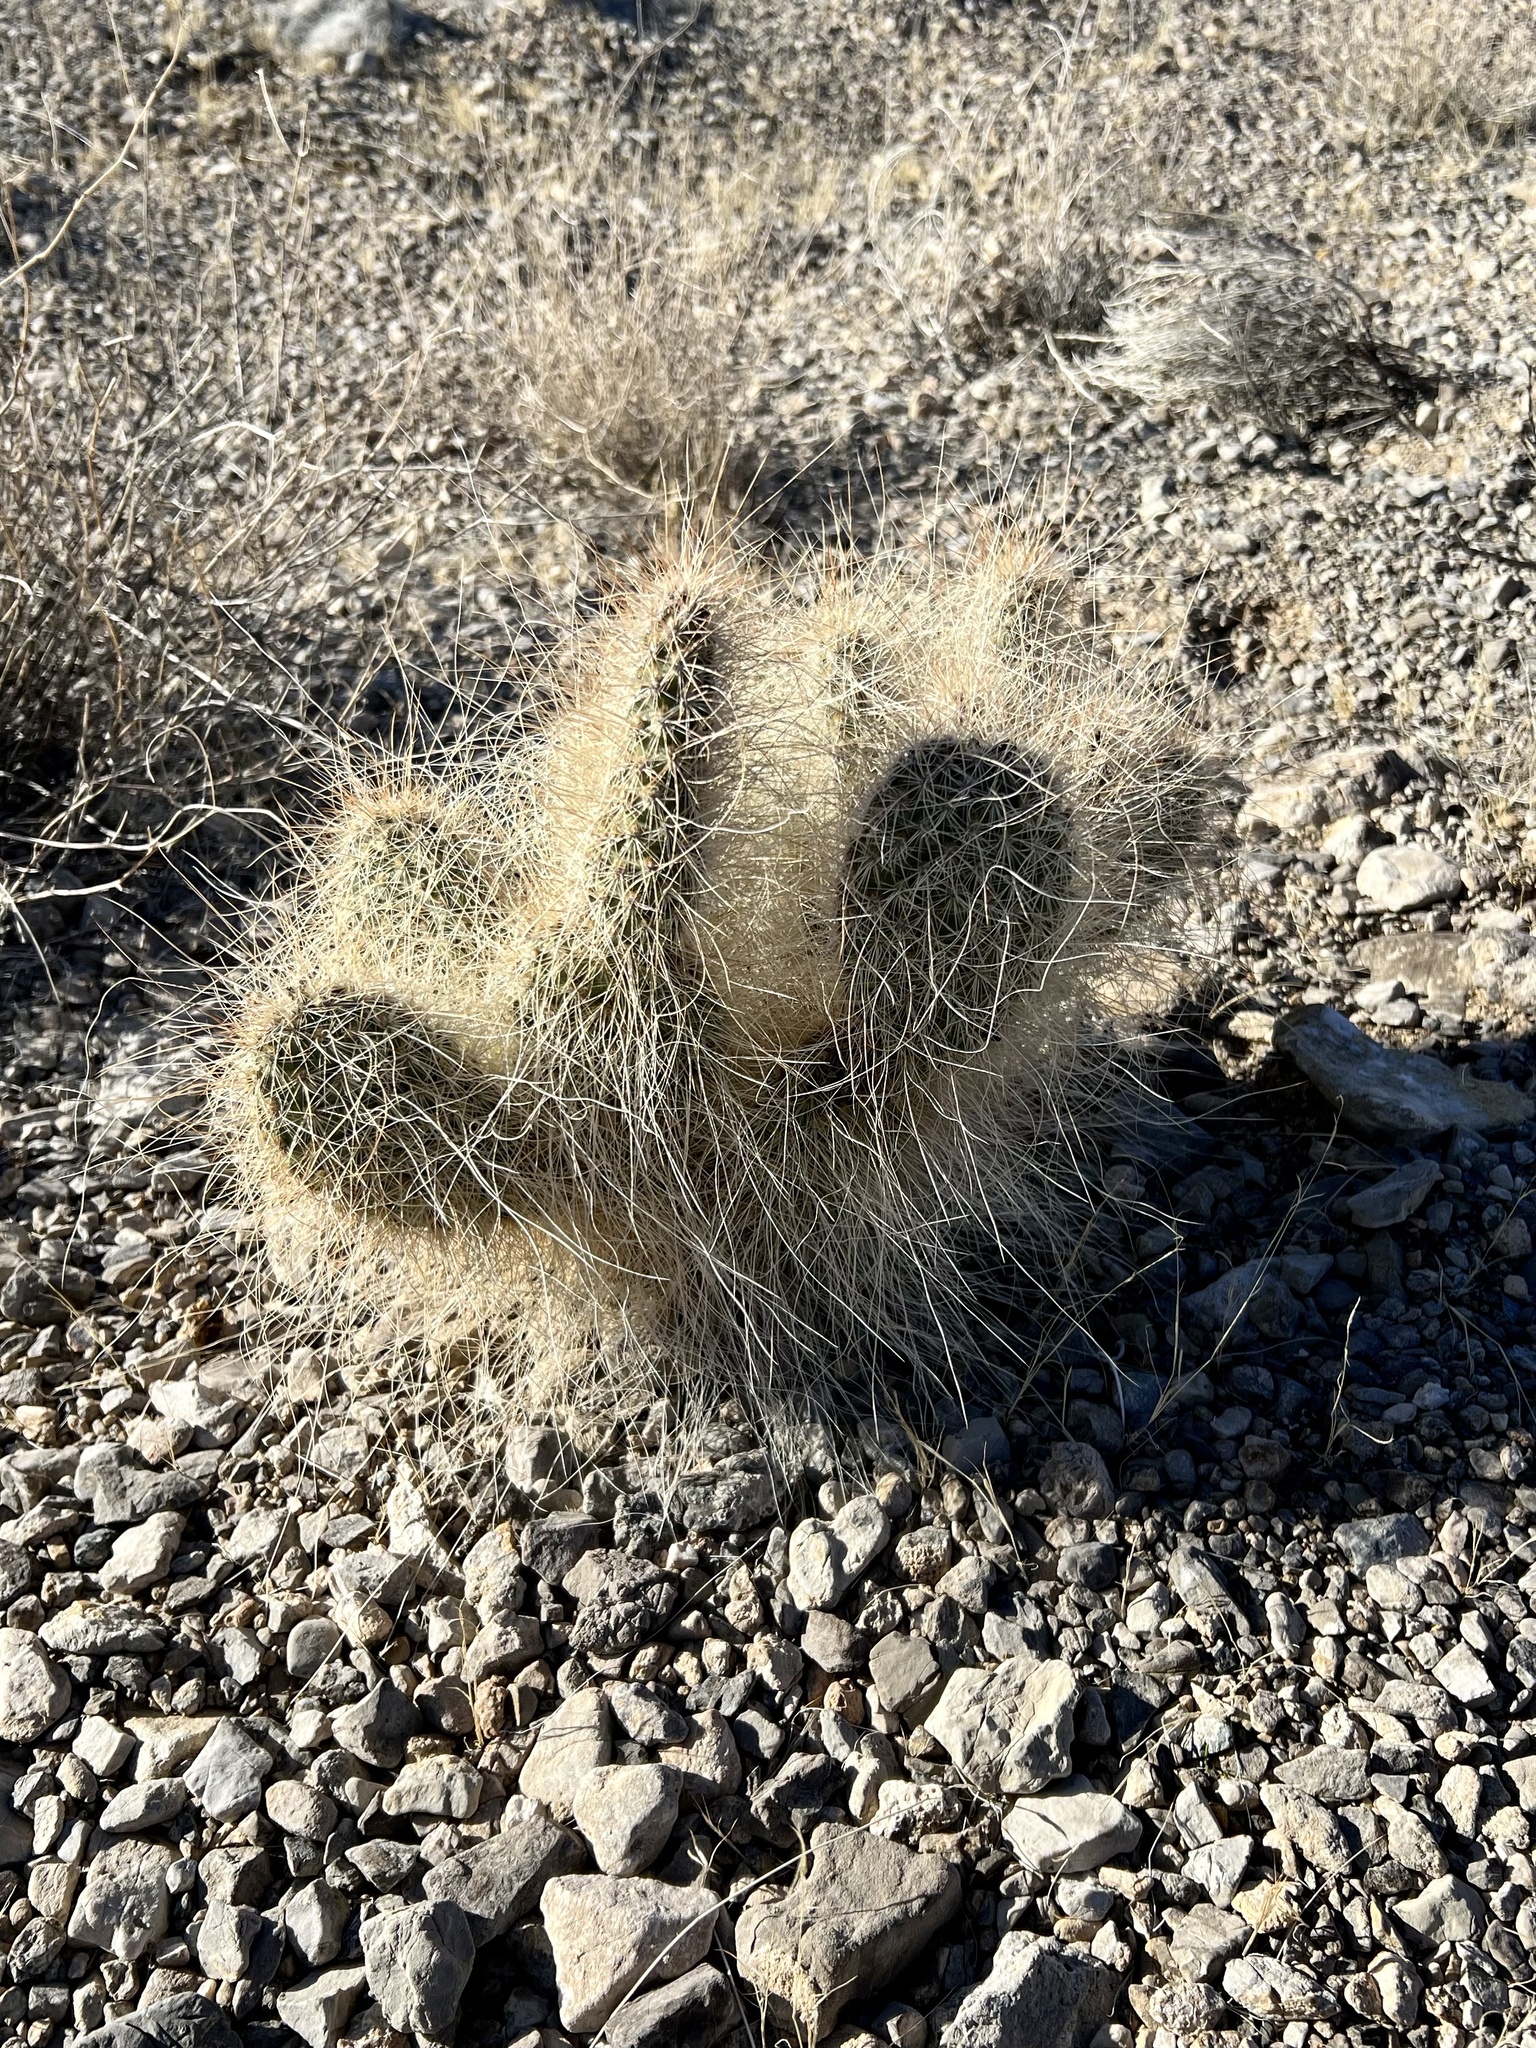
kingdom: Plantae
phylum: Tracheophyta
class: Magnoliopsida
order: Caryophyllales
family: Cactaceae
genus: Opuntia
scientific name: Opuntia polyacantha
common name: Plains prickly-pear
